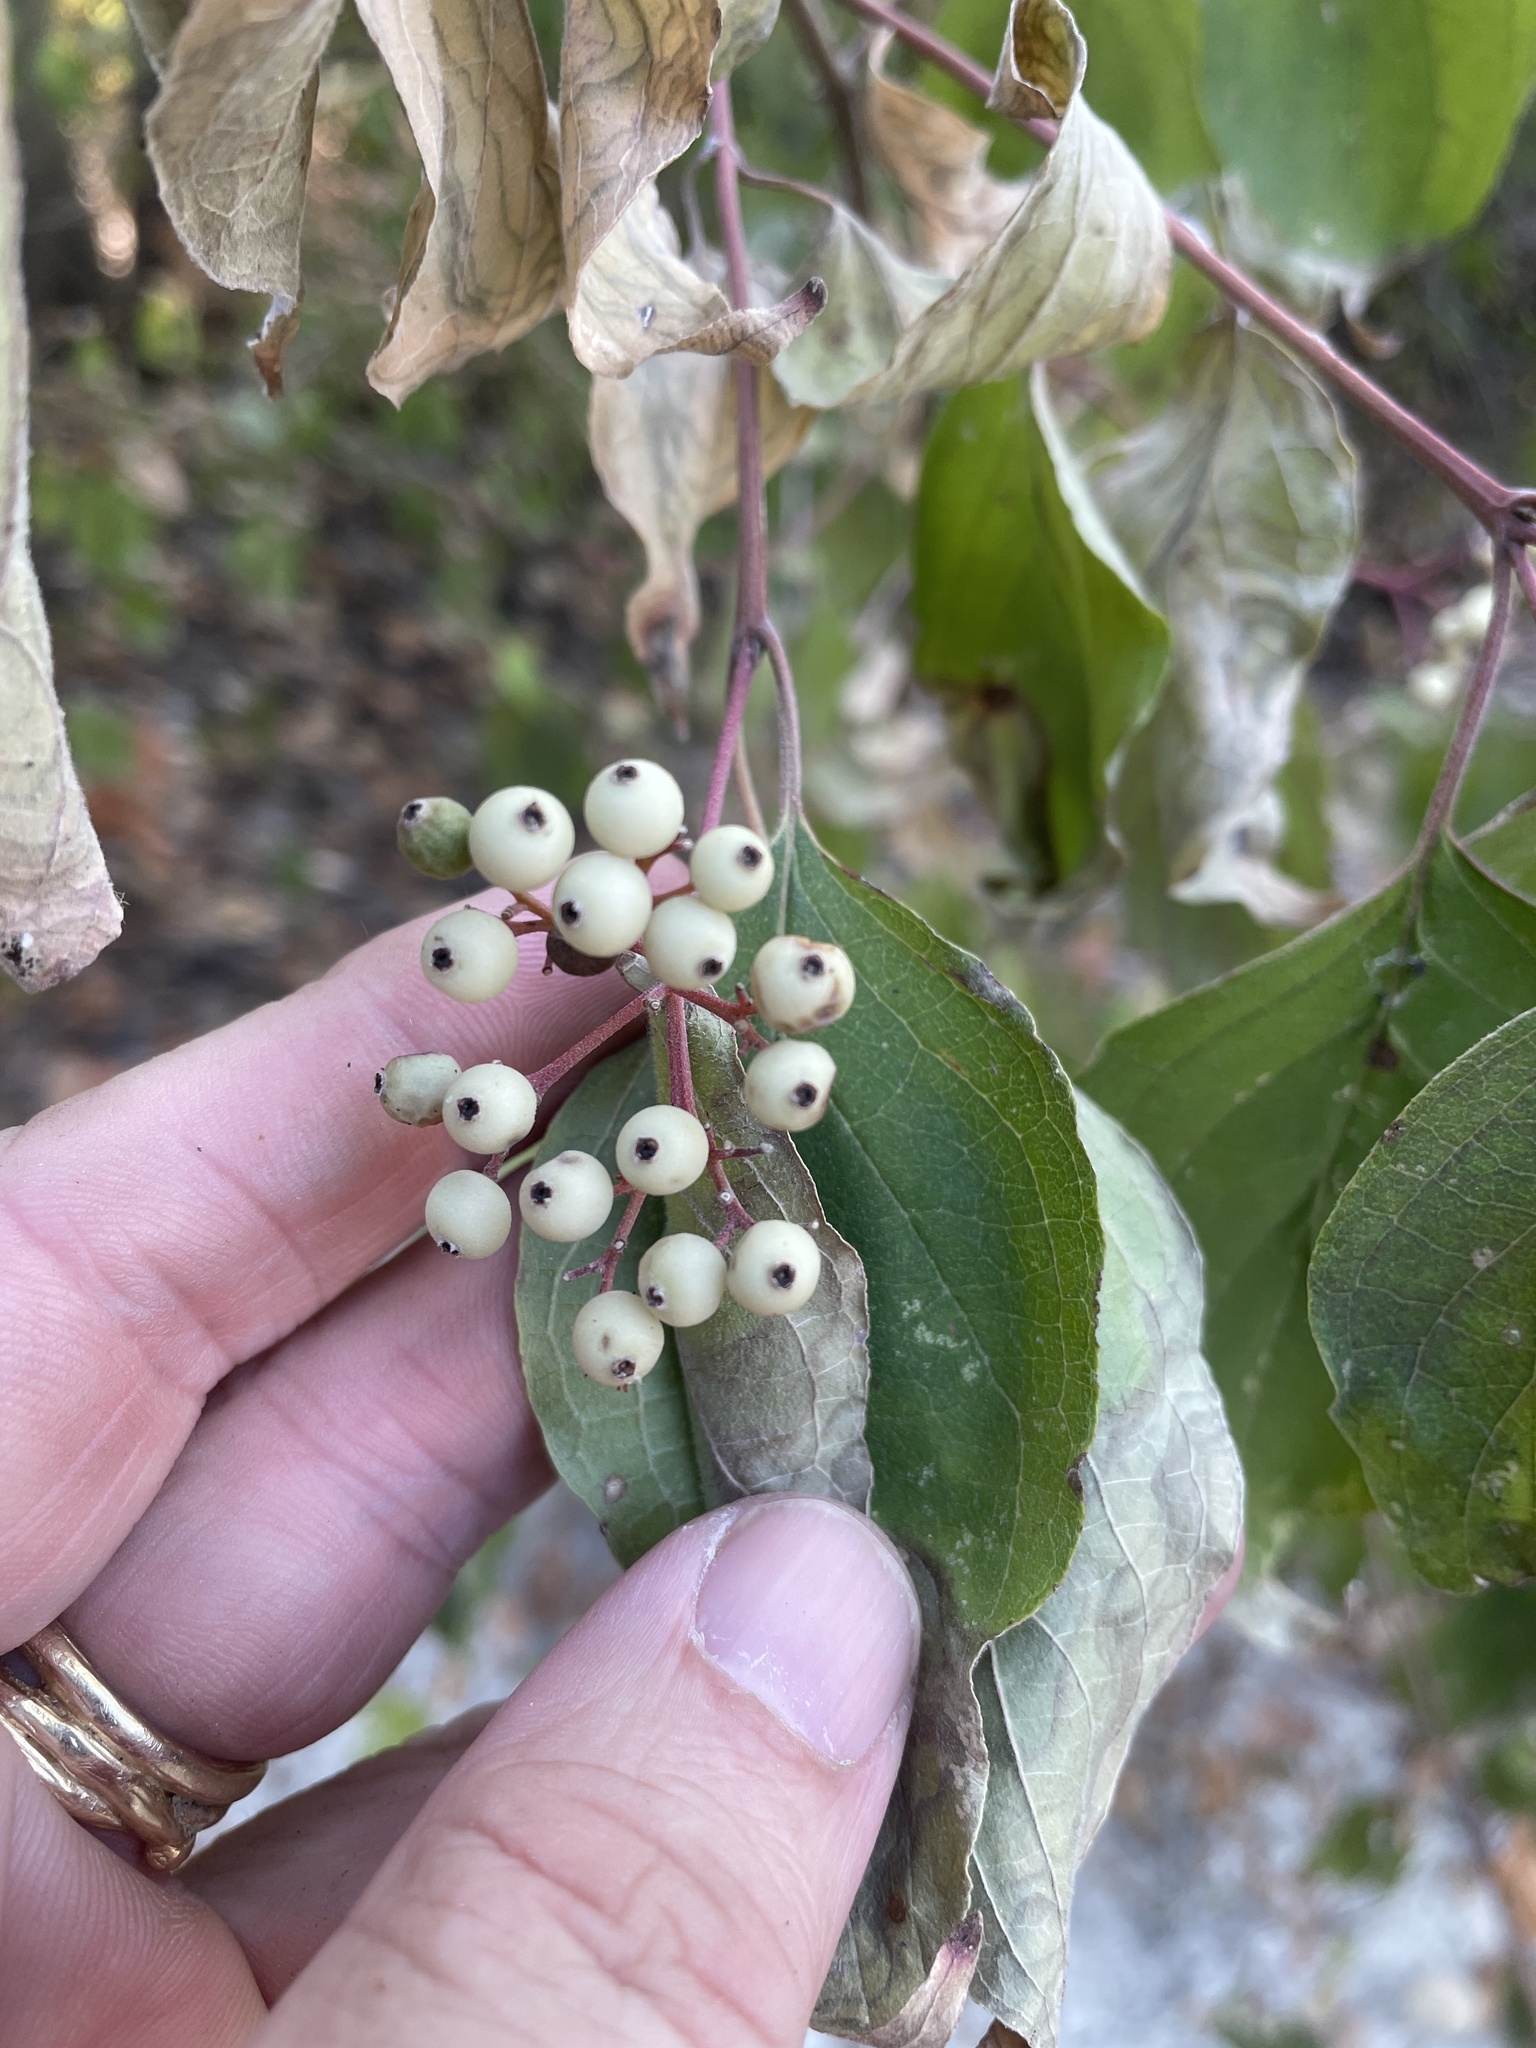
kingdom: Plantae
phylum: Tracheophyta
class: Magnoliopsida
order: Cornales
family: Cornaceae
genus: Cornus
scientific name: Cornus drummondii
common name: Rough-leaf dogwood
